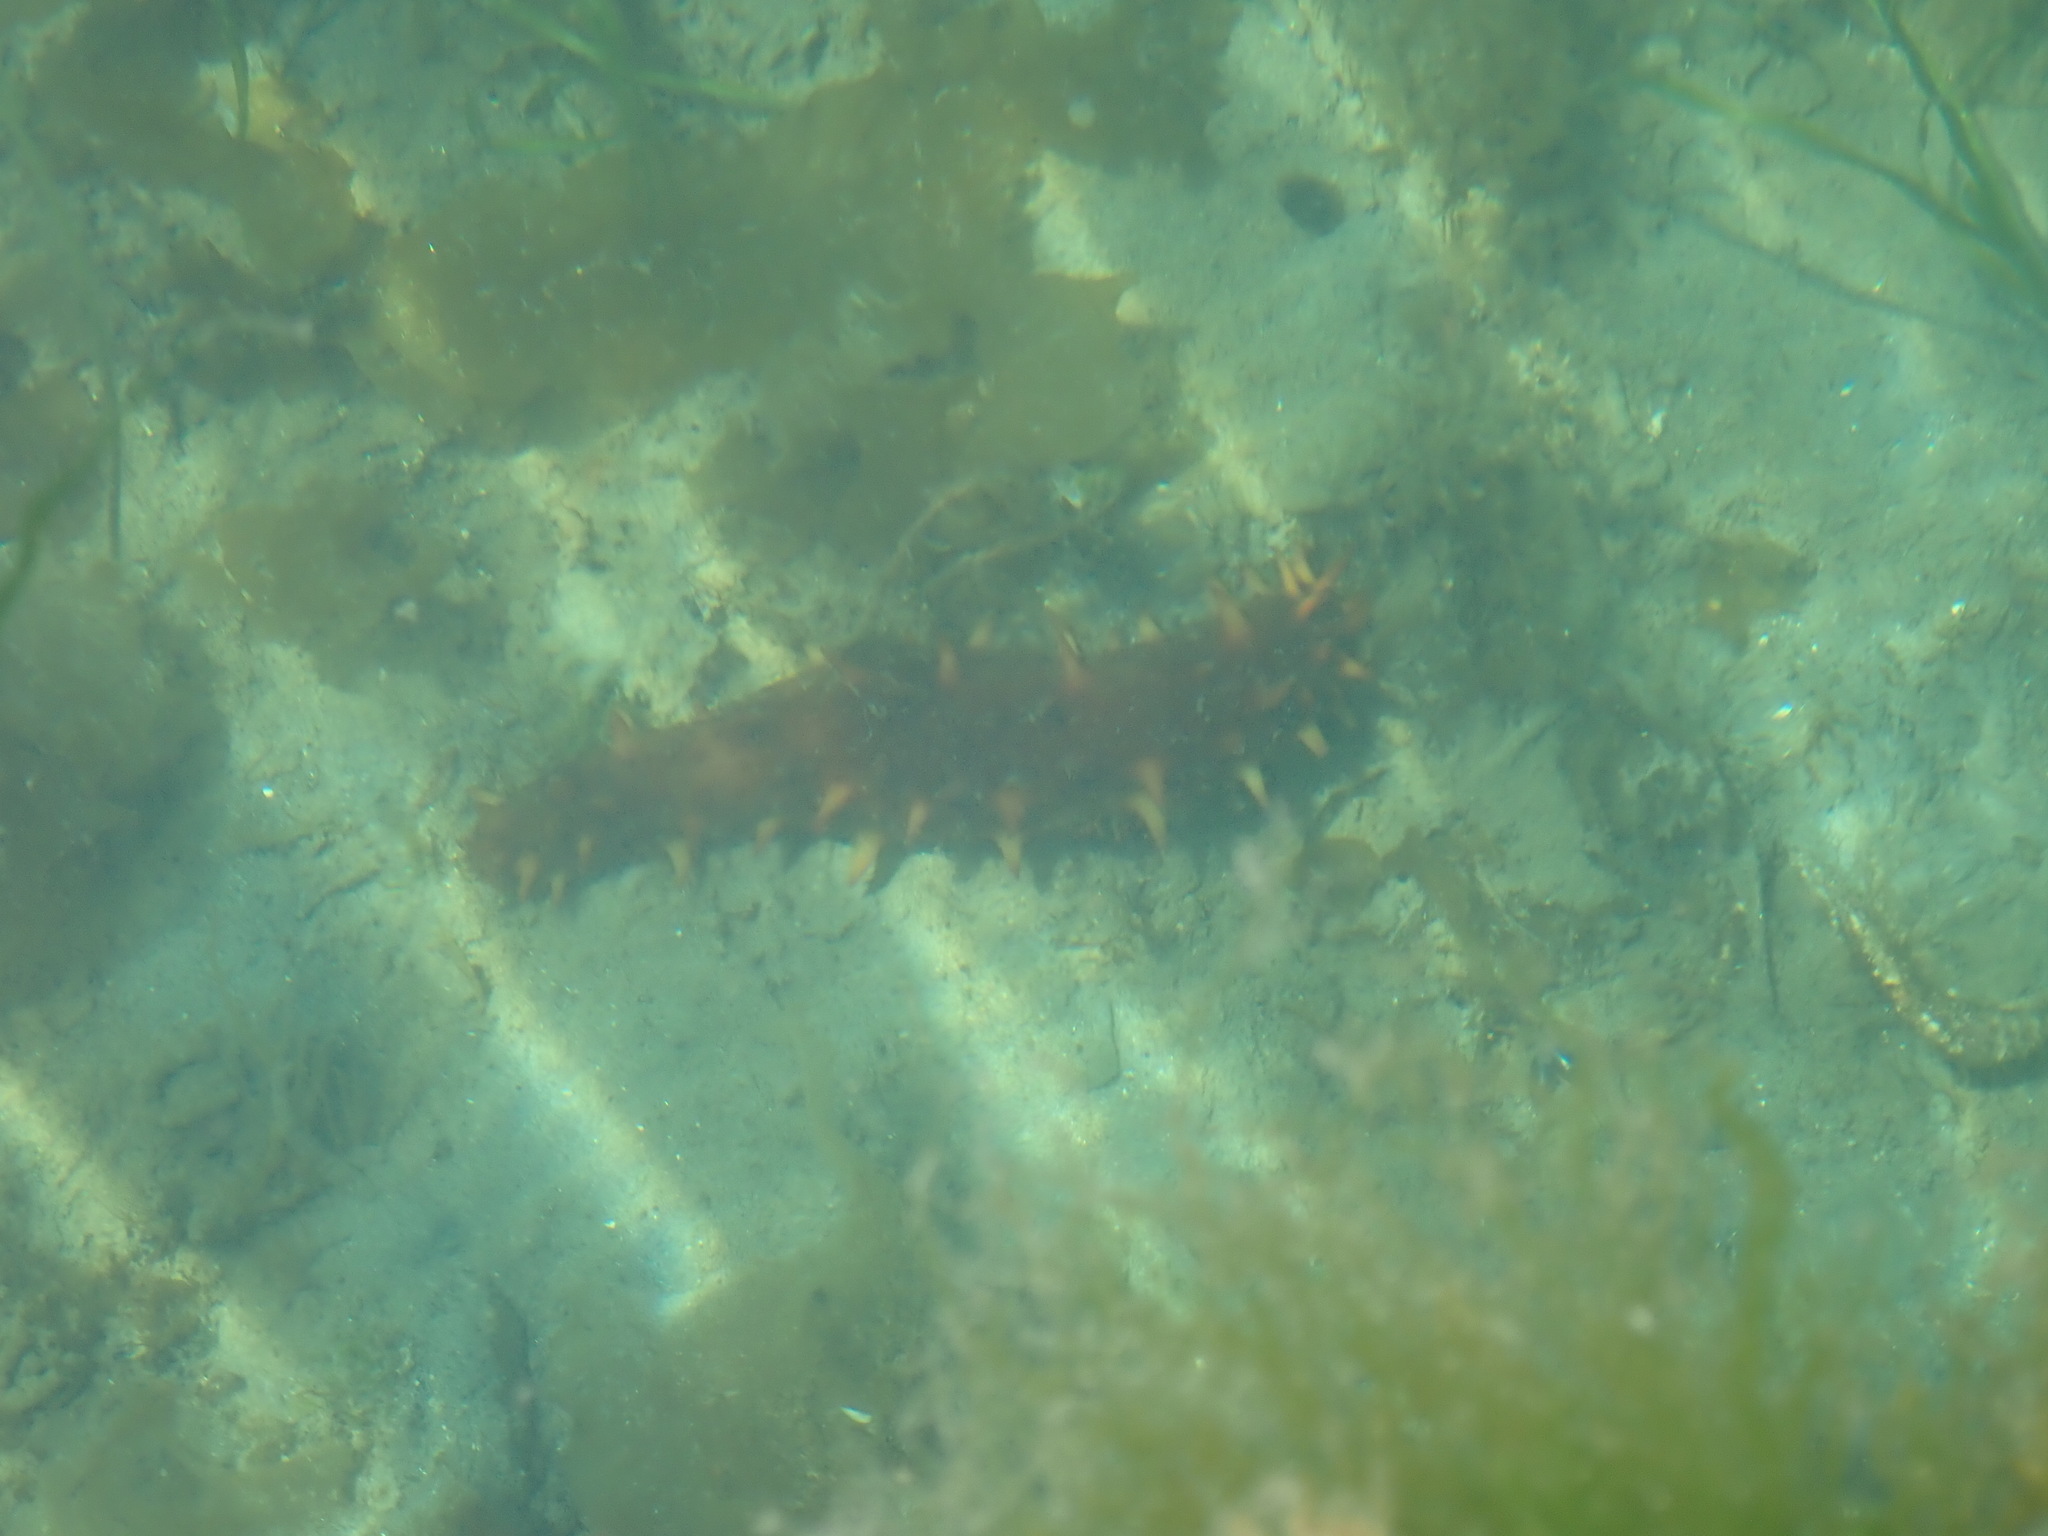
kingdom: Animalia
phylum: Echinodermata
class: Holothuroidea
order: Synallactida
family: Stichopodidae
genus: Apostichopus
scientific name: Apostichopus californicus
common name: California sea cucumber
